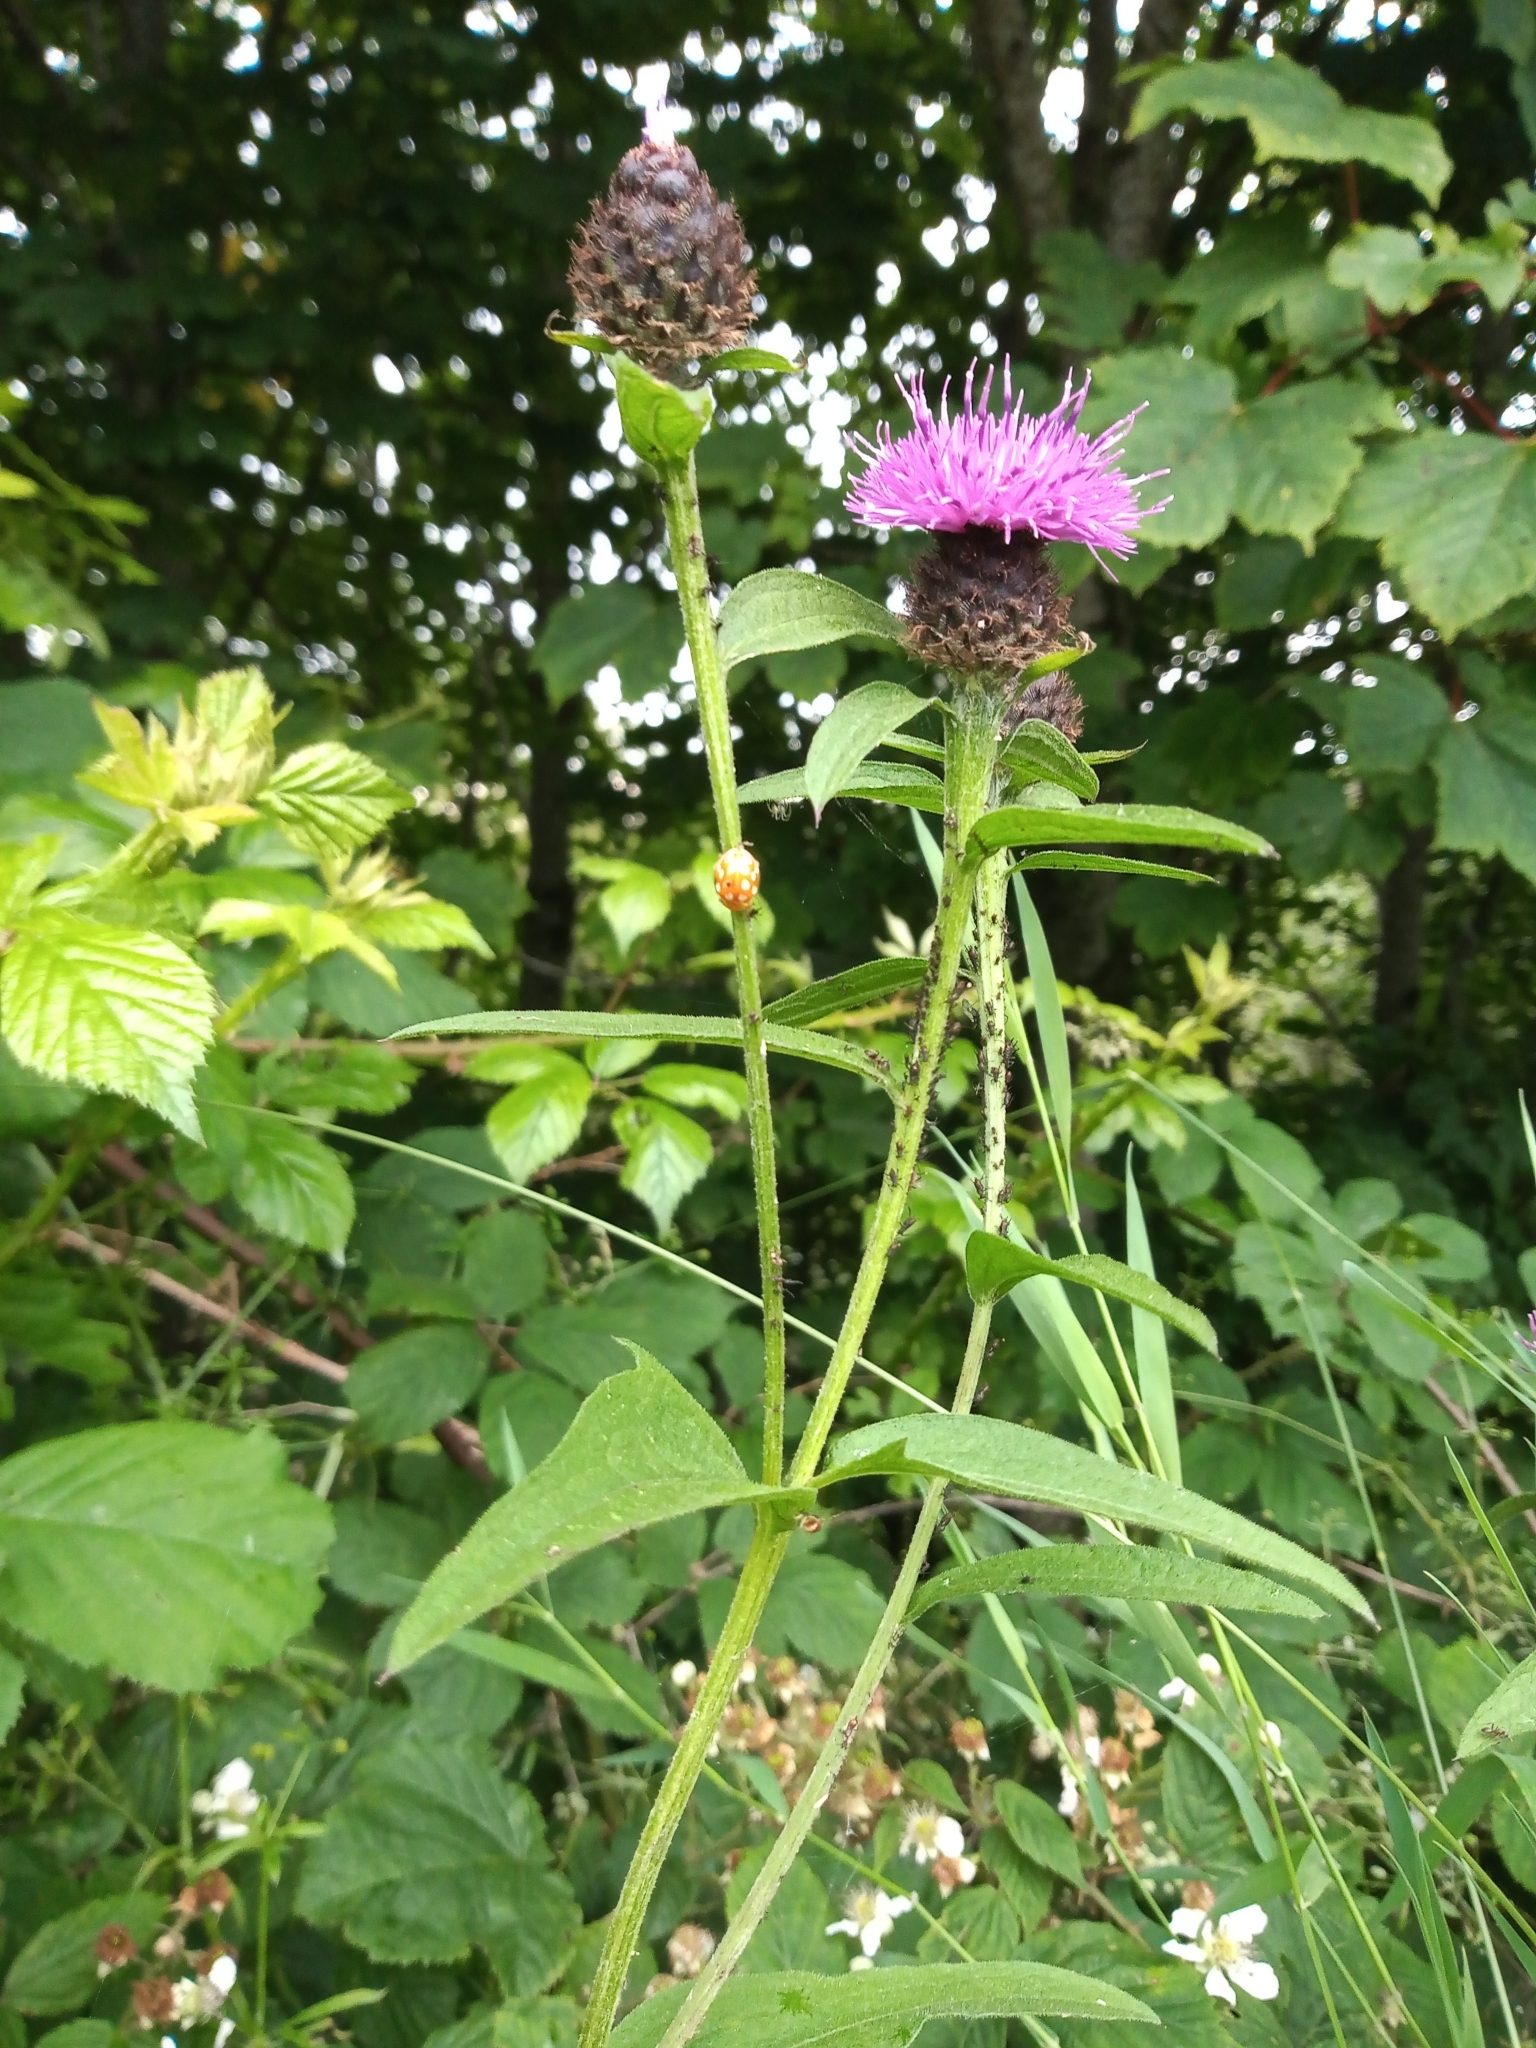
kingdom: Plantae
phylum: Tracheophyta
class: Magnoliopsida
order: Asterales
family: Asteraceae
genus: Centaurea
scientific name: Centaurea nigra
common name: Lesser knapweed
